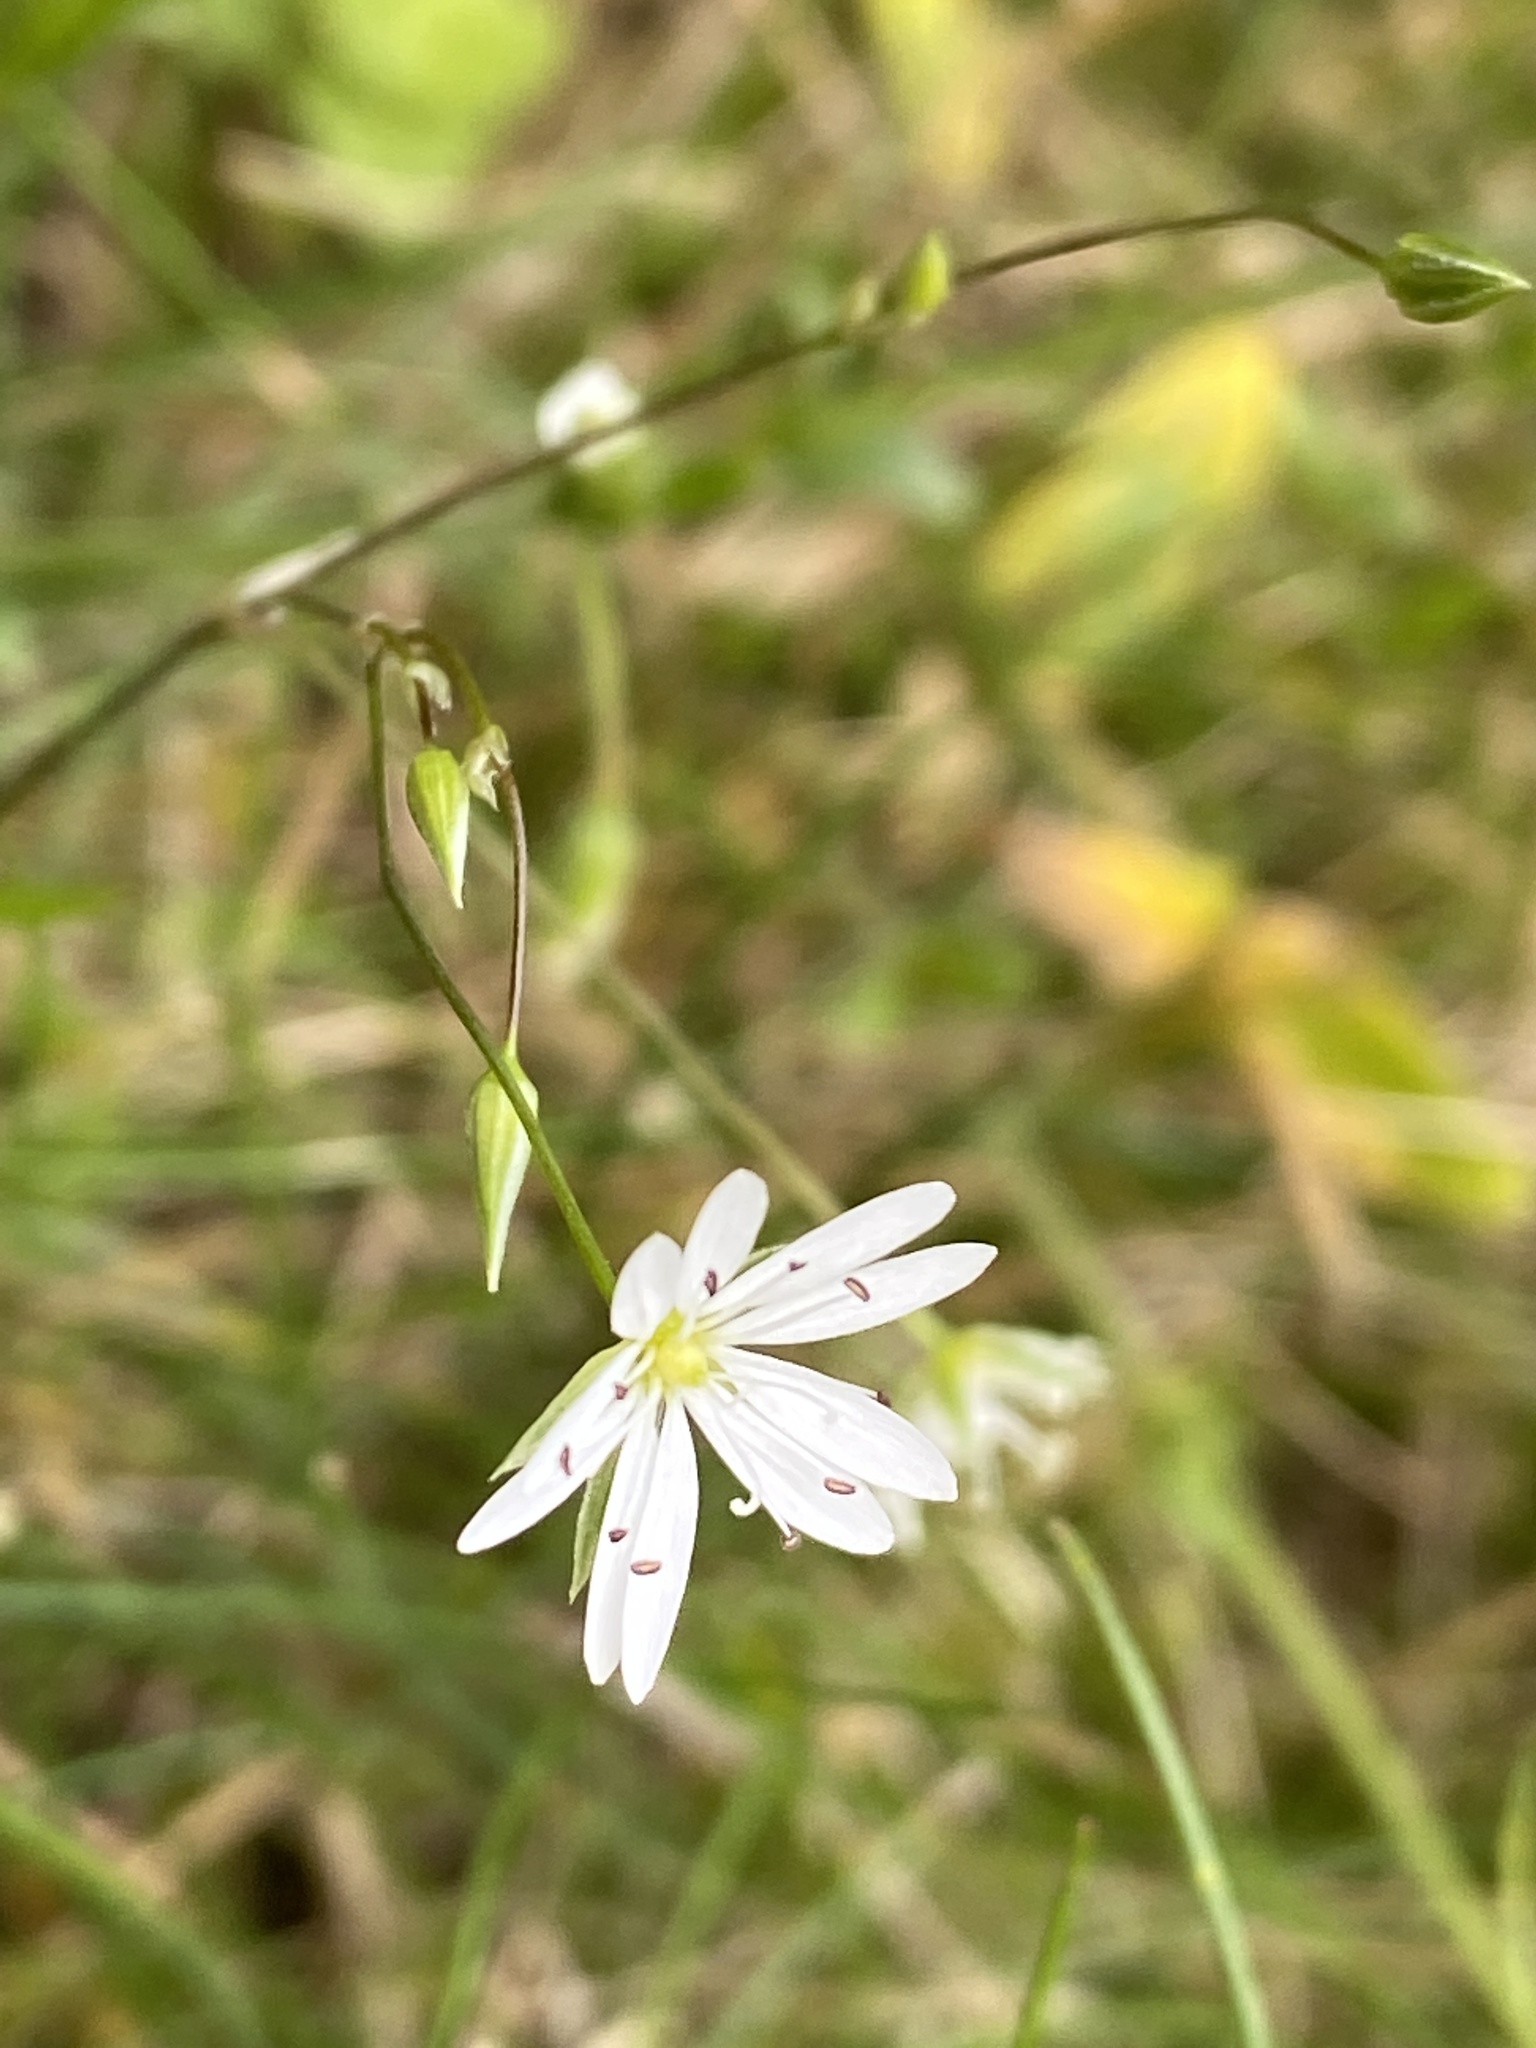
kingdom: Plantae
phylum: Tracheophyta
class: Magnoliopsida
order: Caryophyllales
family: Caryophyllaceae
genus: Stellaria
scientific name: Stellaria graminea
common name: Grass-like starwort
